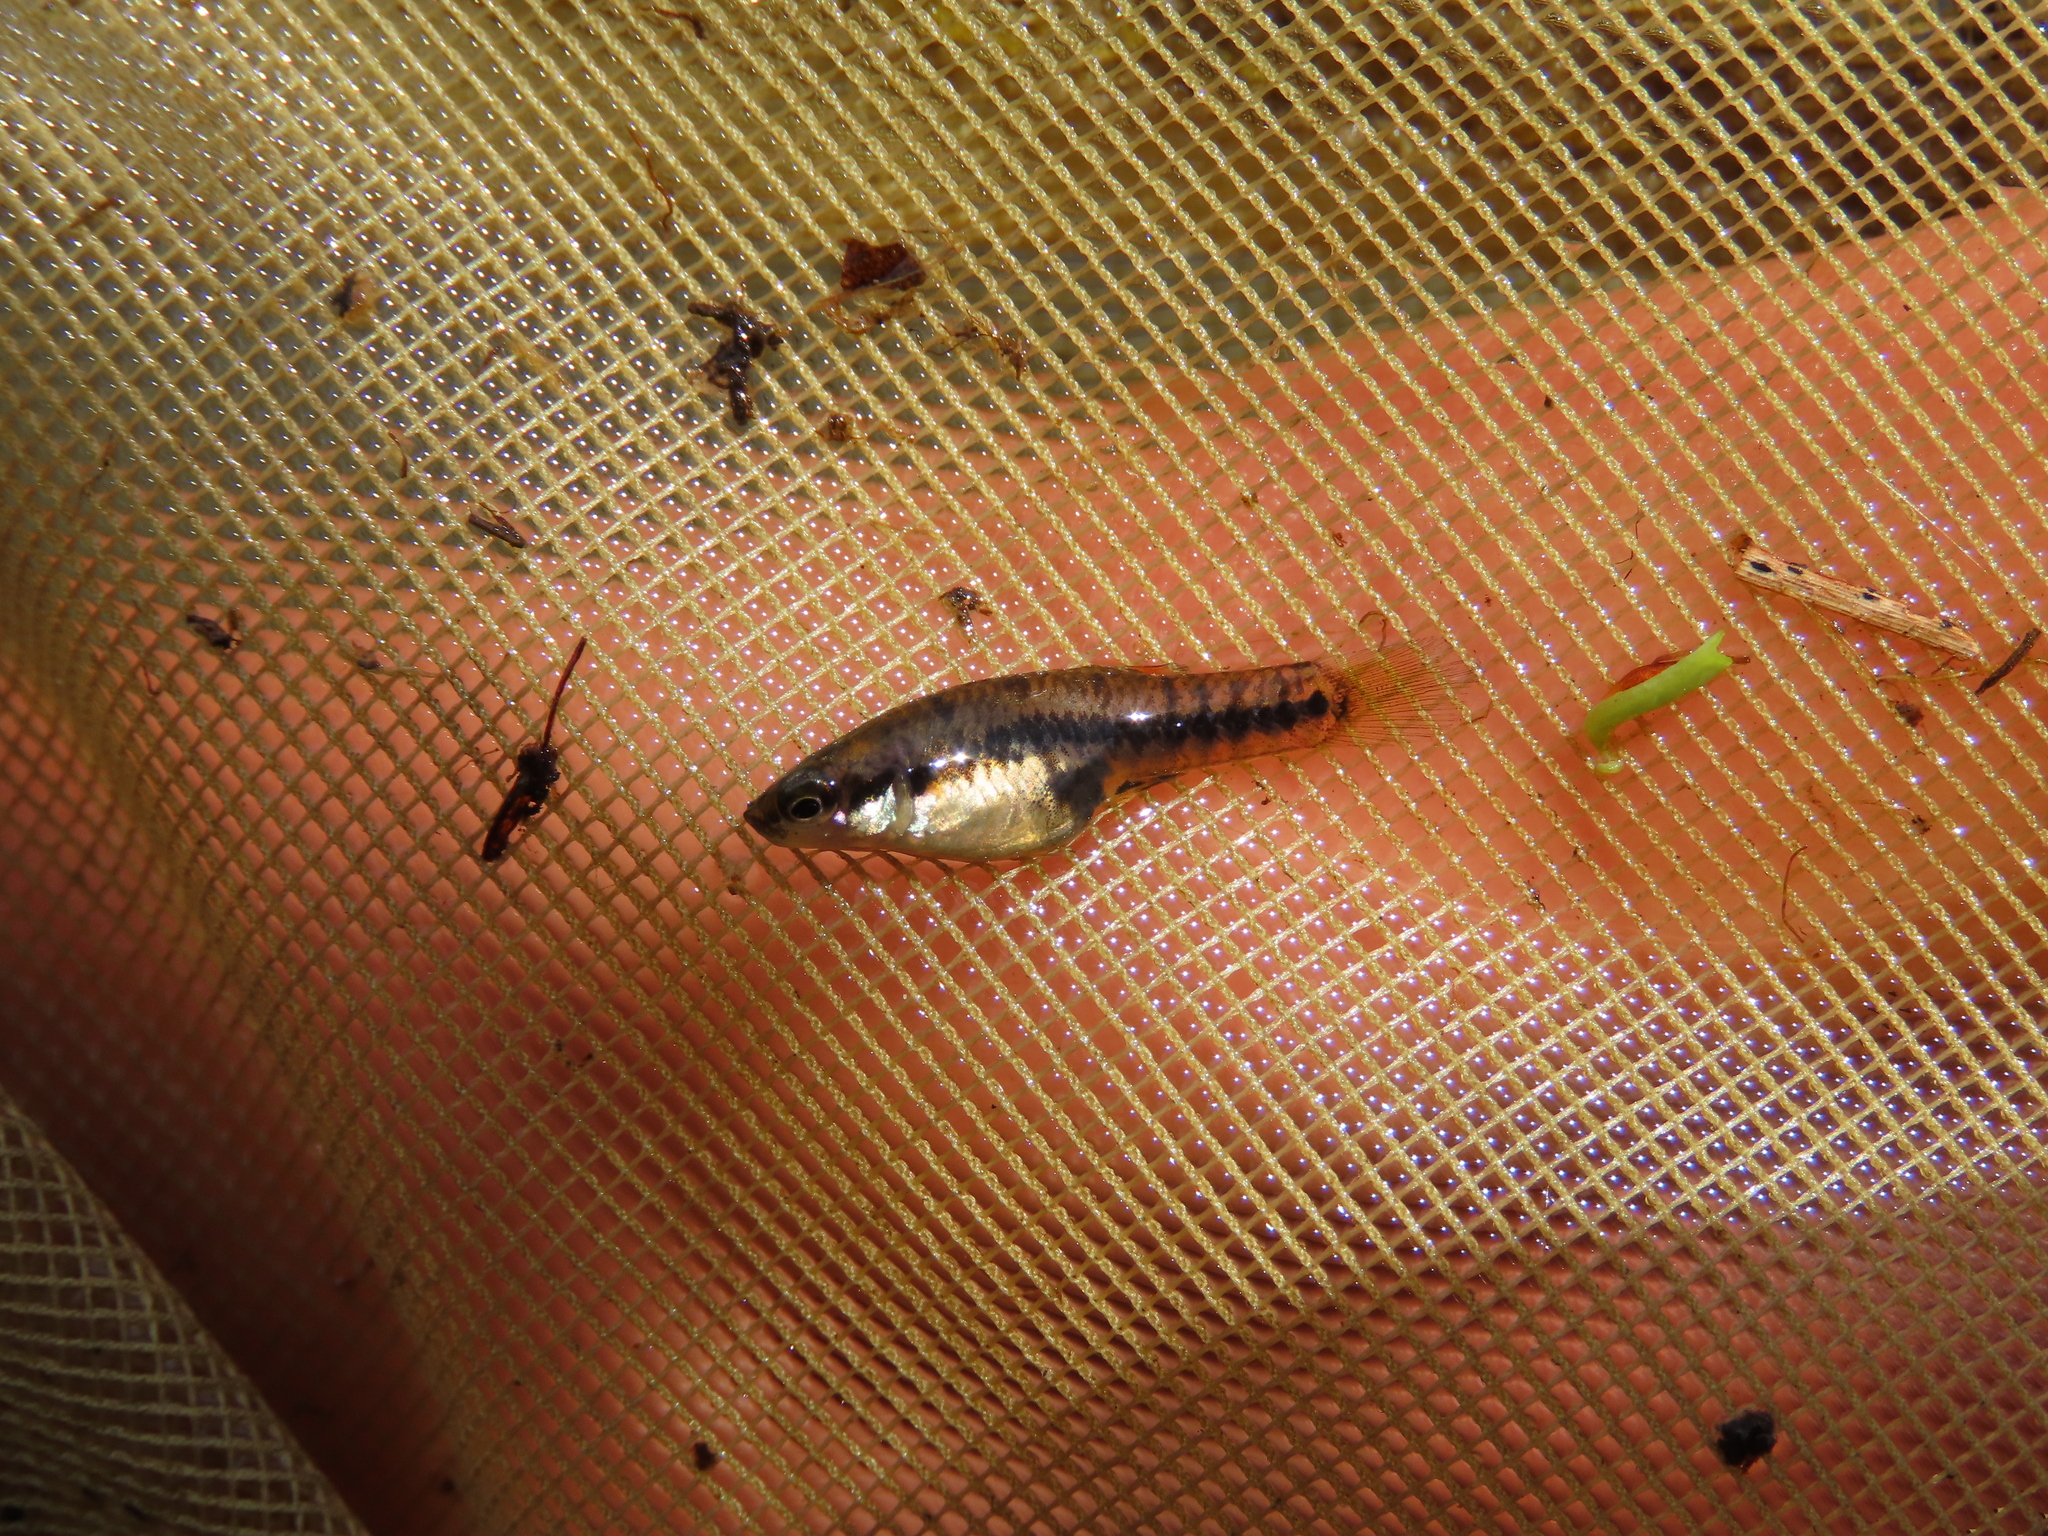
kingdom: Animalia
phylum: Chordata
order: Cyprinodontiformes
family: Poeciliidae
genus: Heterandria
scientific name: Heterandria formosa
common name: Least killifish
